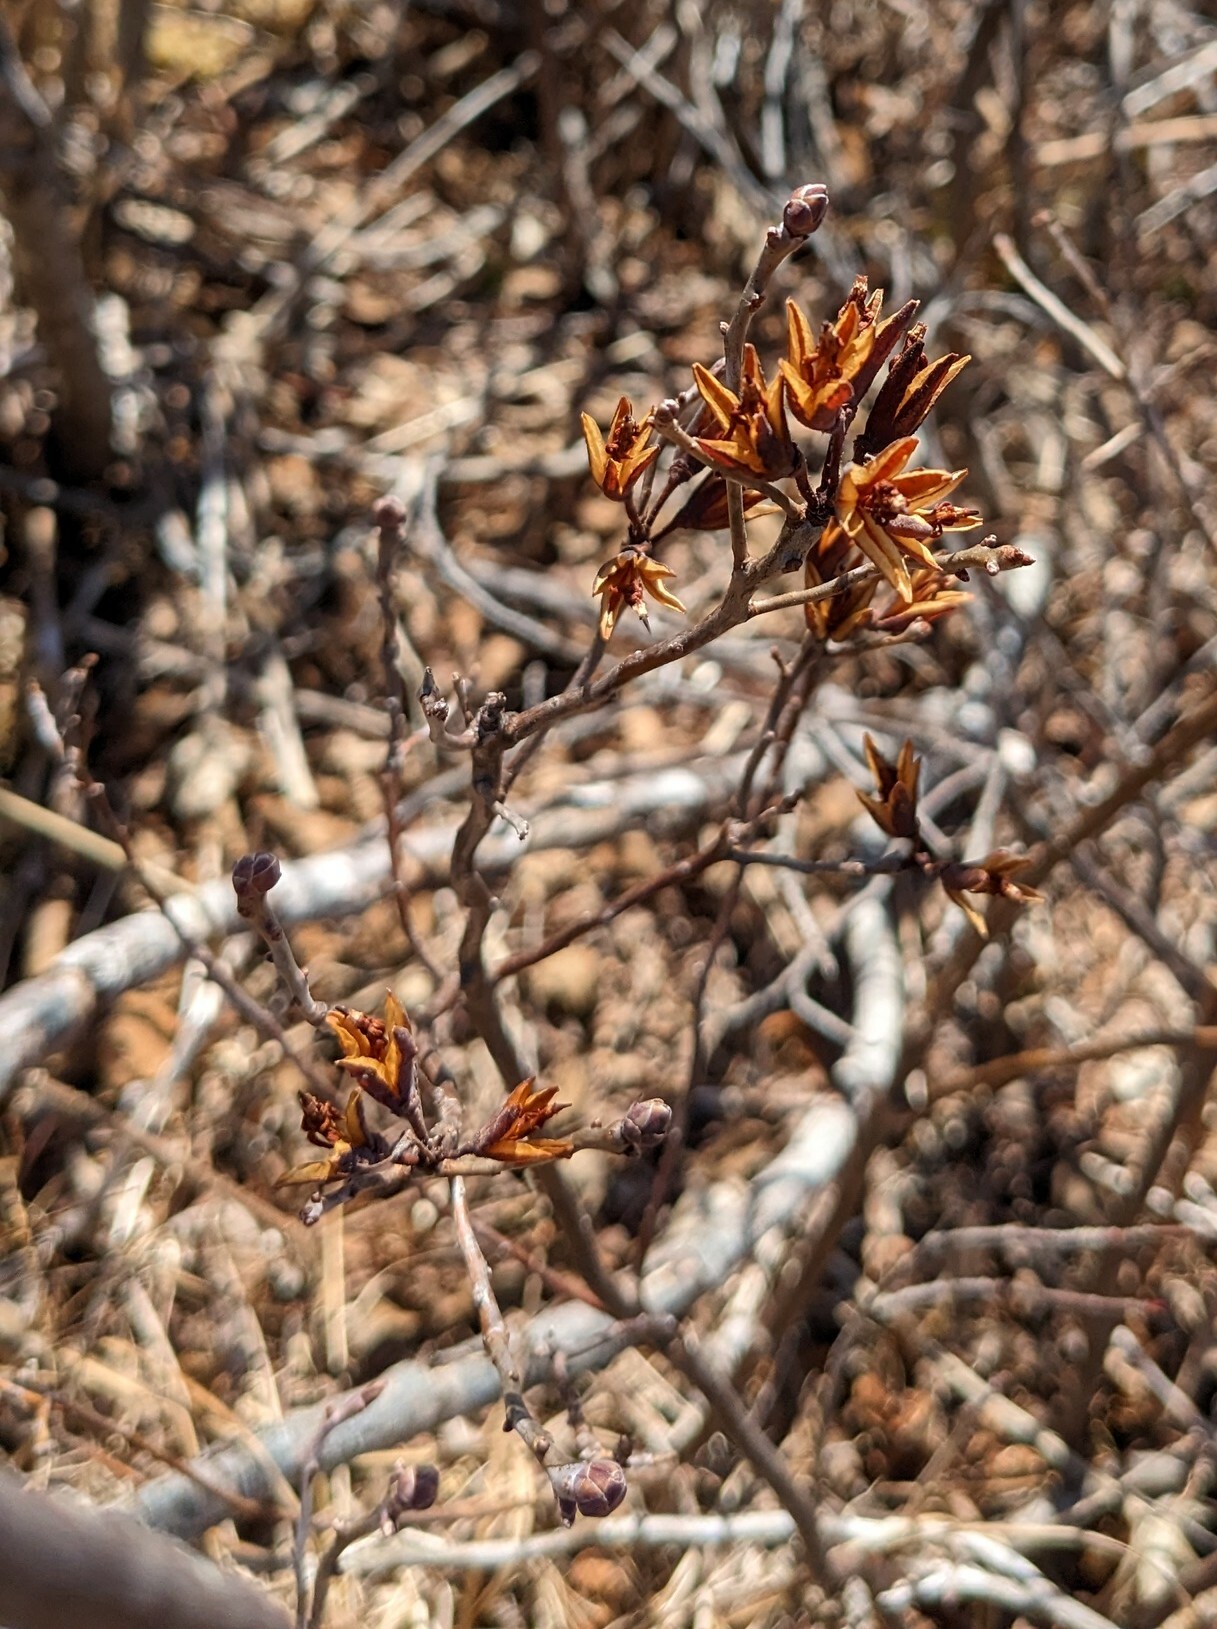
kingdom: Plantae
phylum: Tracheophyta
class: Magnoliopsida
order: Ericales
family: Ericaceae
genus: Rhododendron
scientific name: Rhododendron canadense
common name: Rhodora
